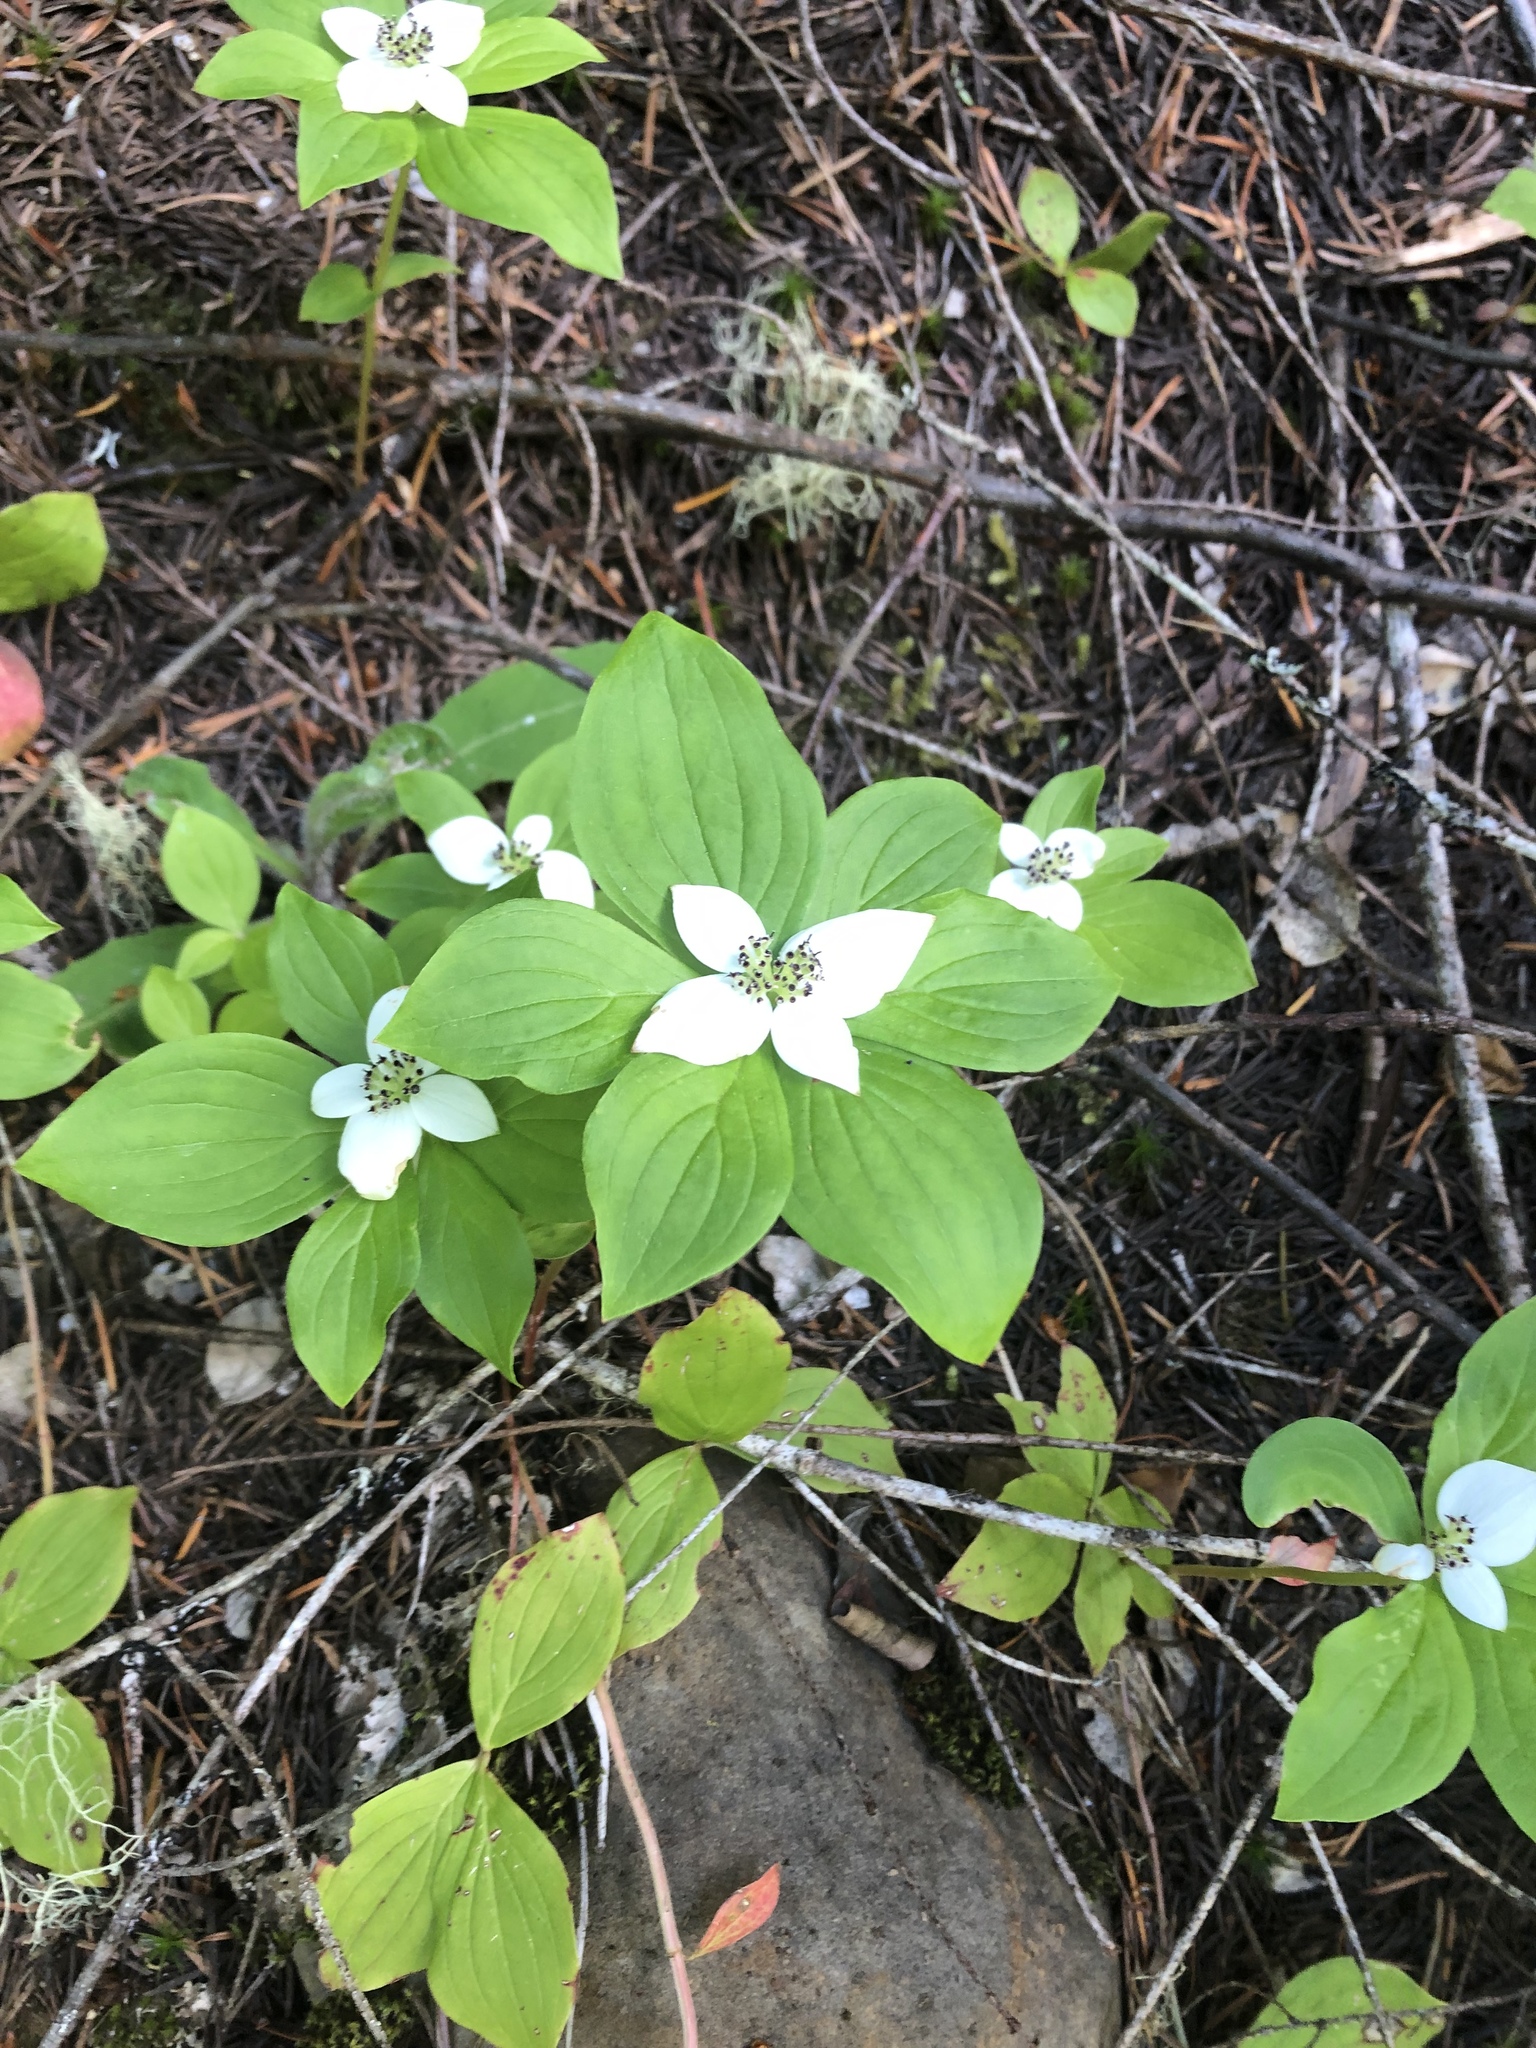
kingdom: Plantae
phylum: Tracheophyta
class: Magnoliopsida
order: Cornales
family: Cornaceae
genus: Cornus
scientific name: Cornus unalaschkensis
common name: Alaska bunchberry
